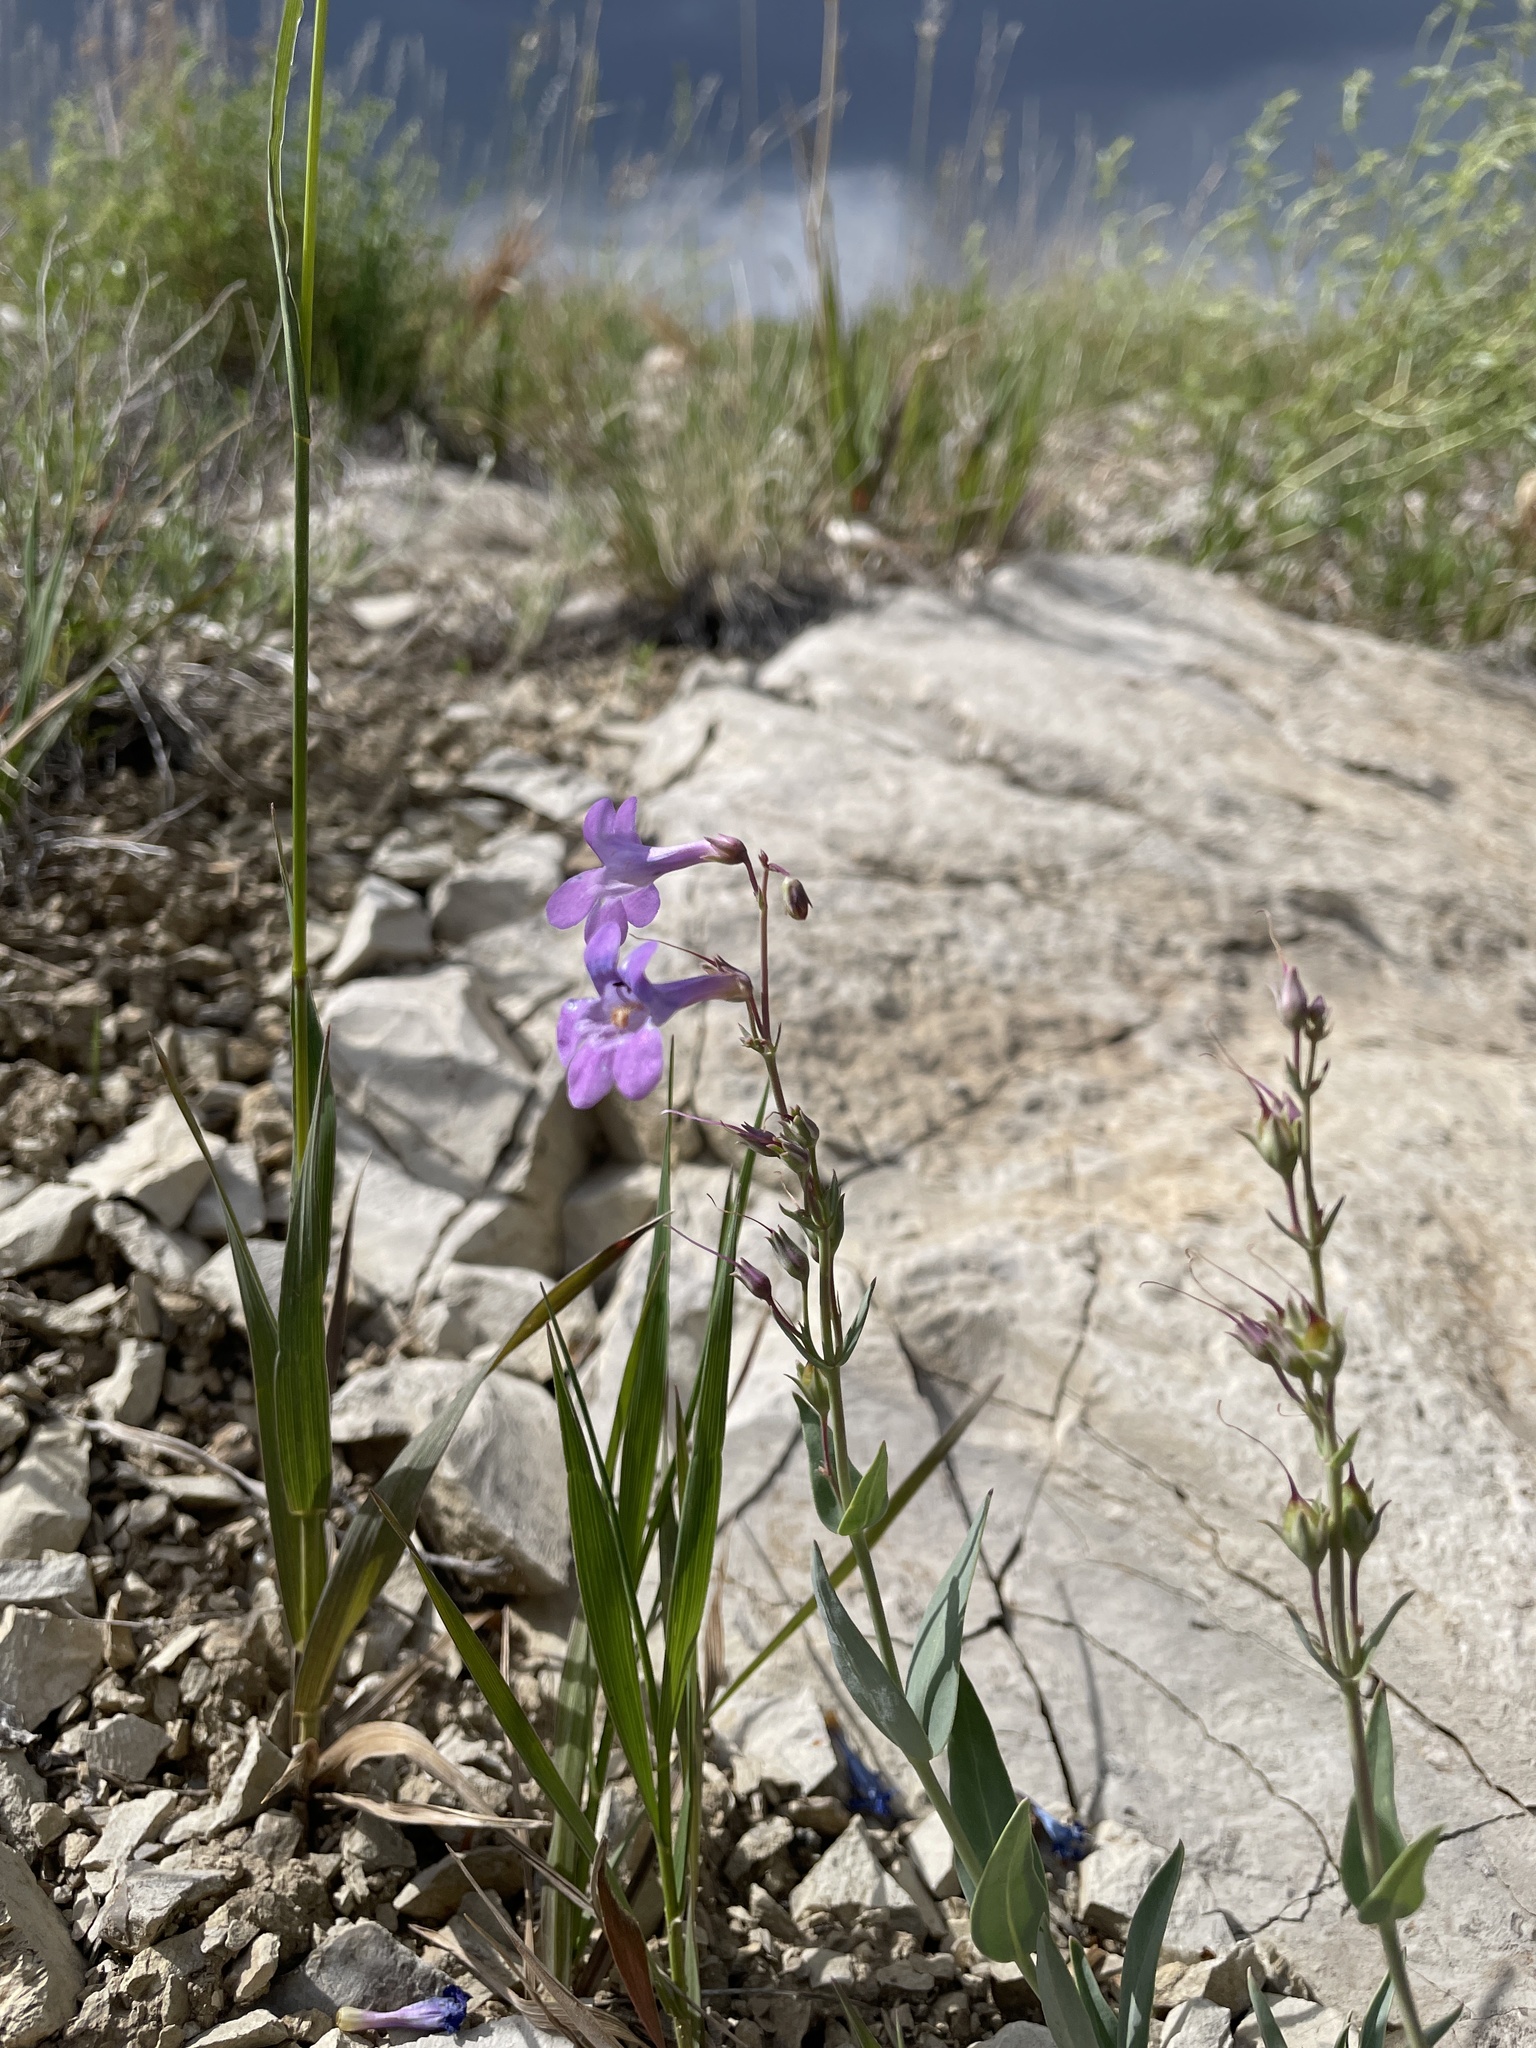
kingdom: Plantae
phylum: Tracheophyta
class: Magnoliopsida
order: Lamiales
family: Plantaginaceae
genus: Penstemon
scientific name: Penstemon secundiflorus
